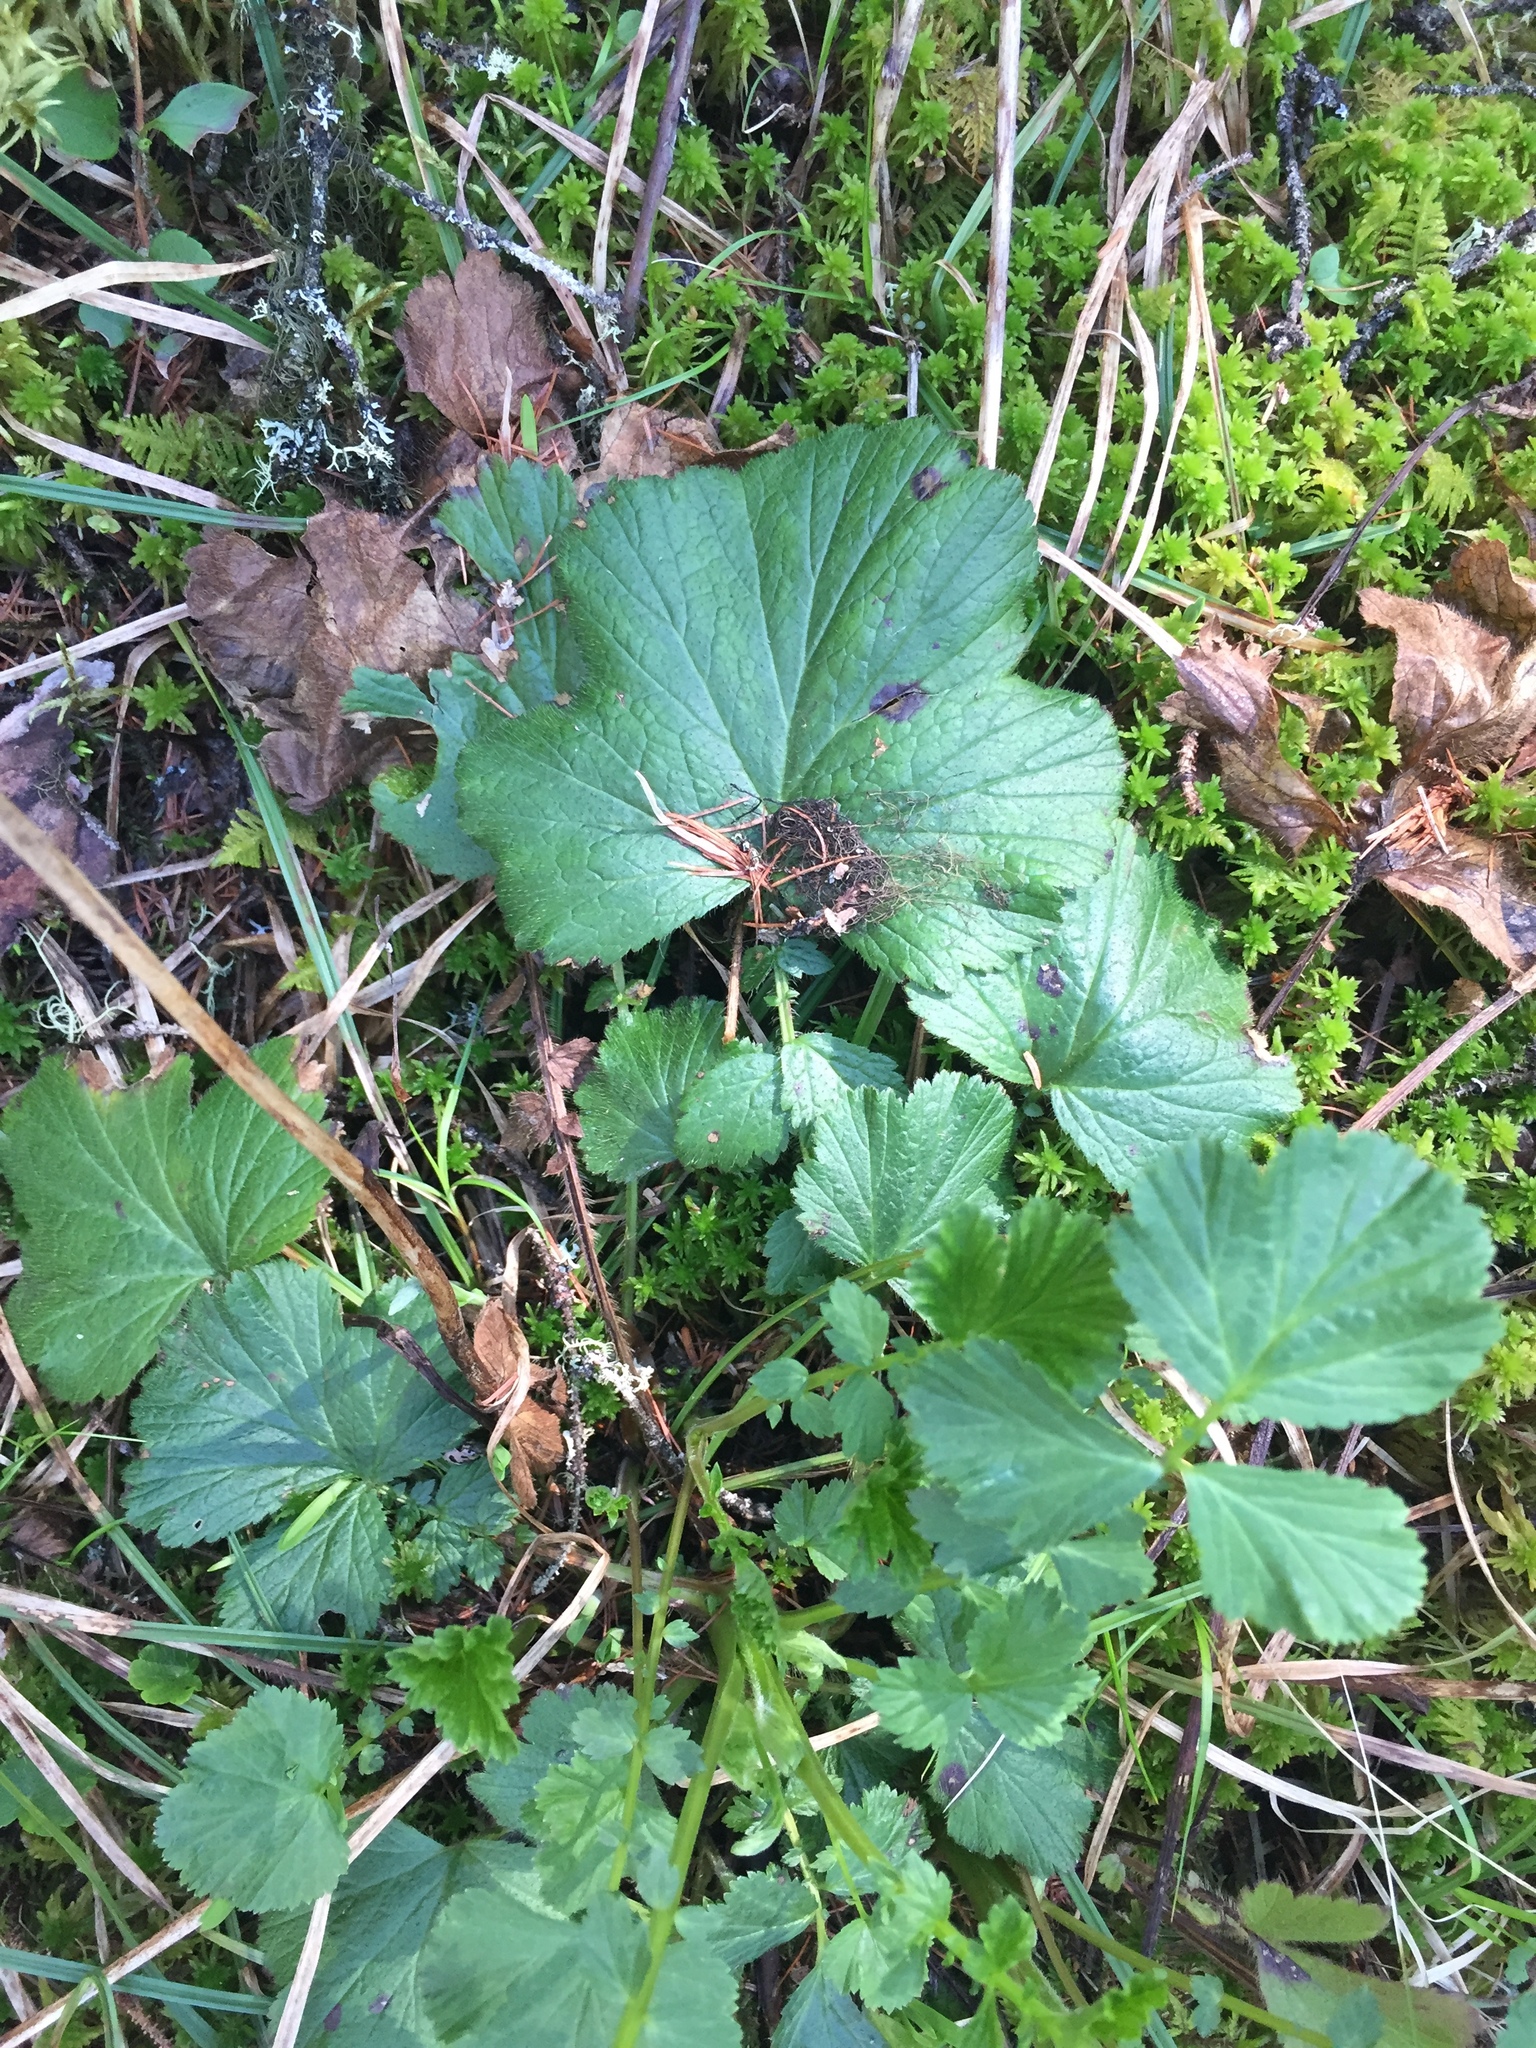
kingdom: Plantae
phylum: Tracheophyta
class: Magnoliopsida
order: Rosales
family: Rosaceae
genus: Geum
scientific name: Geum macrophyllum
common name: Large-leaved avens
